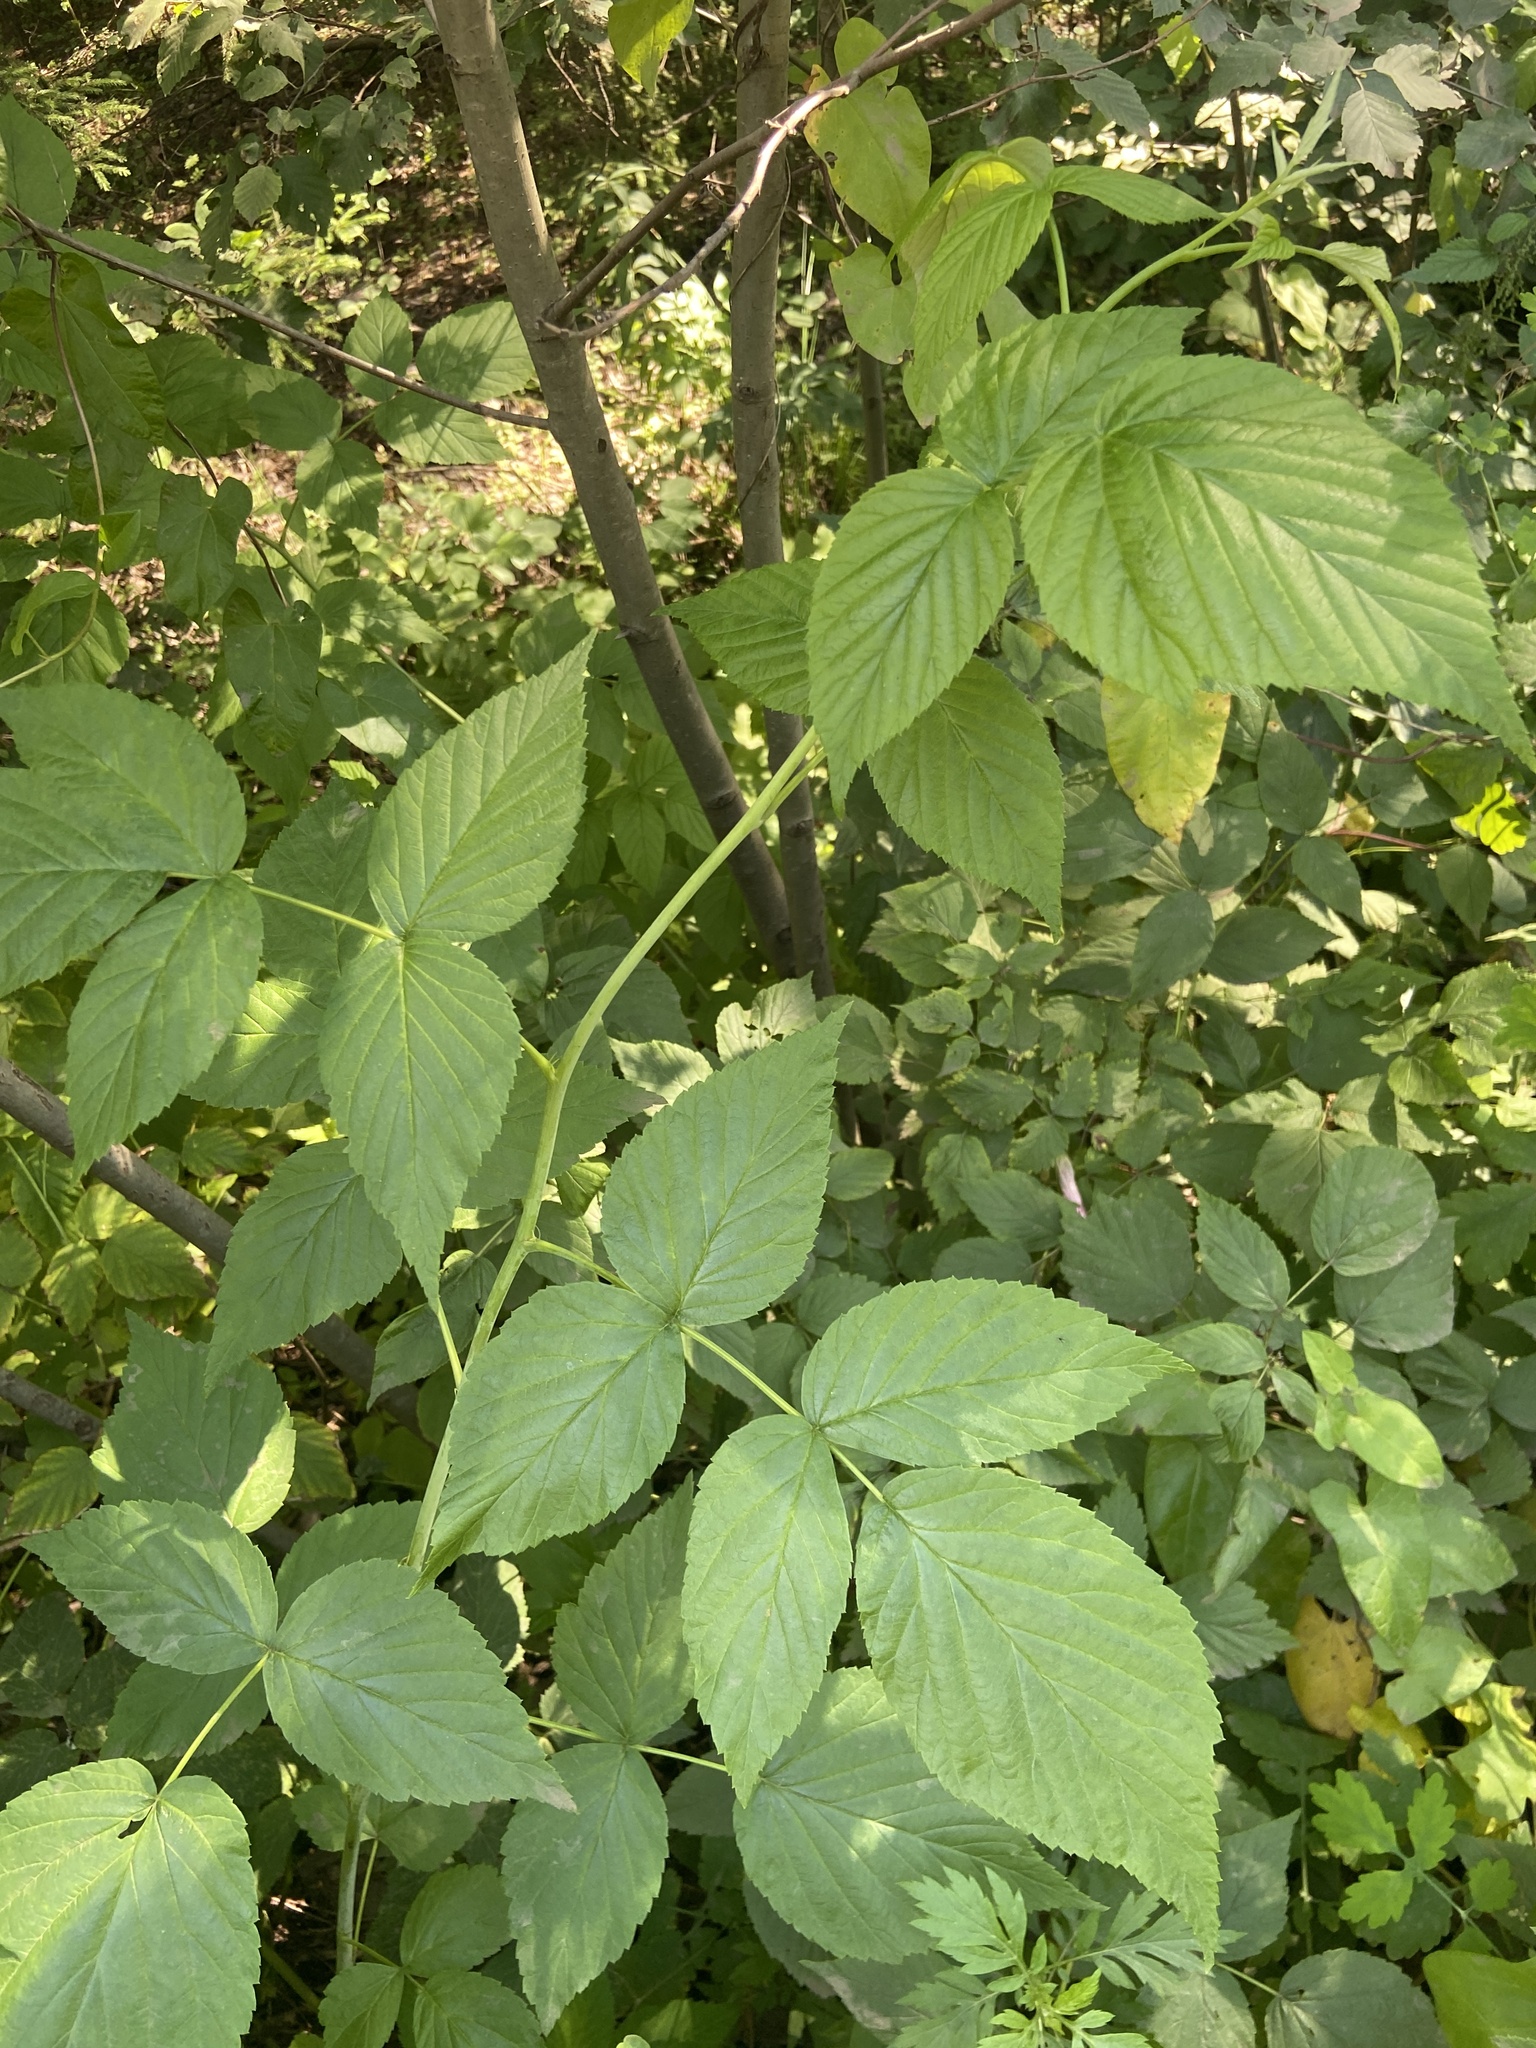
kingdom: Plantae
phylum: Tracheophyta
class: Magnoliopsida
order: Rosales
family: Rosaceae
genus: Rubus
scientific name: Rubus idaeus
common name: Raspberry
